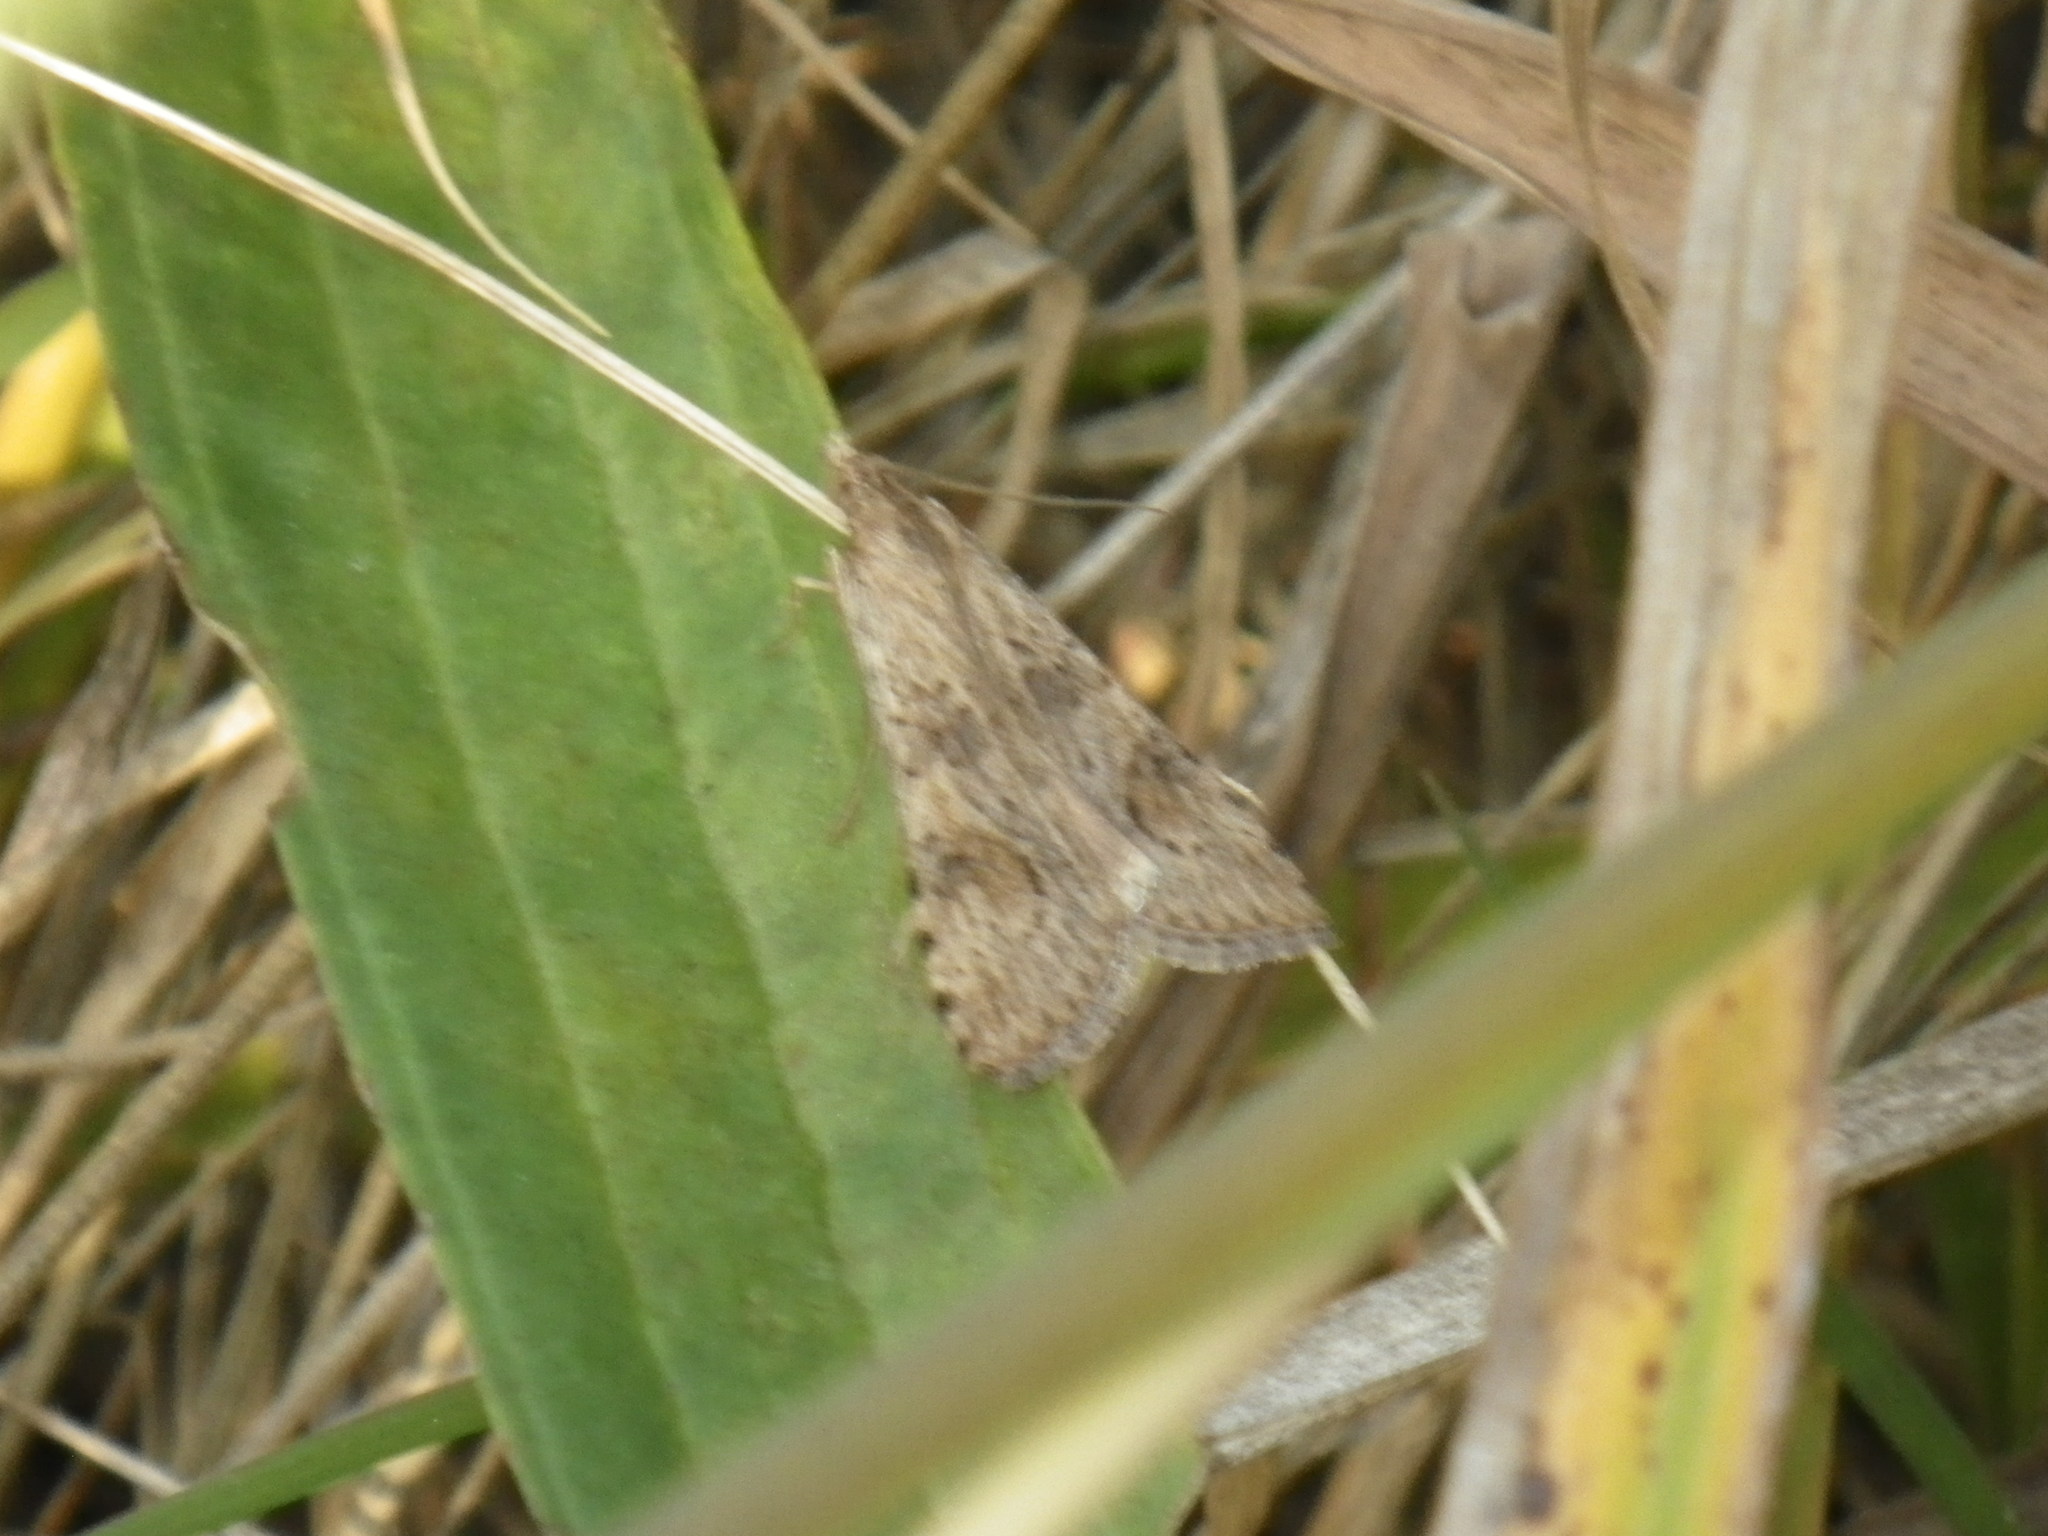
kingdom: Animalia
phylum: Arthropoda
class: Insecta
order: Lepidoptera
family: Crambidae
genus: Nomophila
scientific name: Nomophila nearctica
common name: American rush veneer
